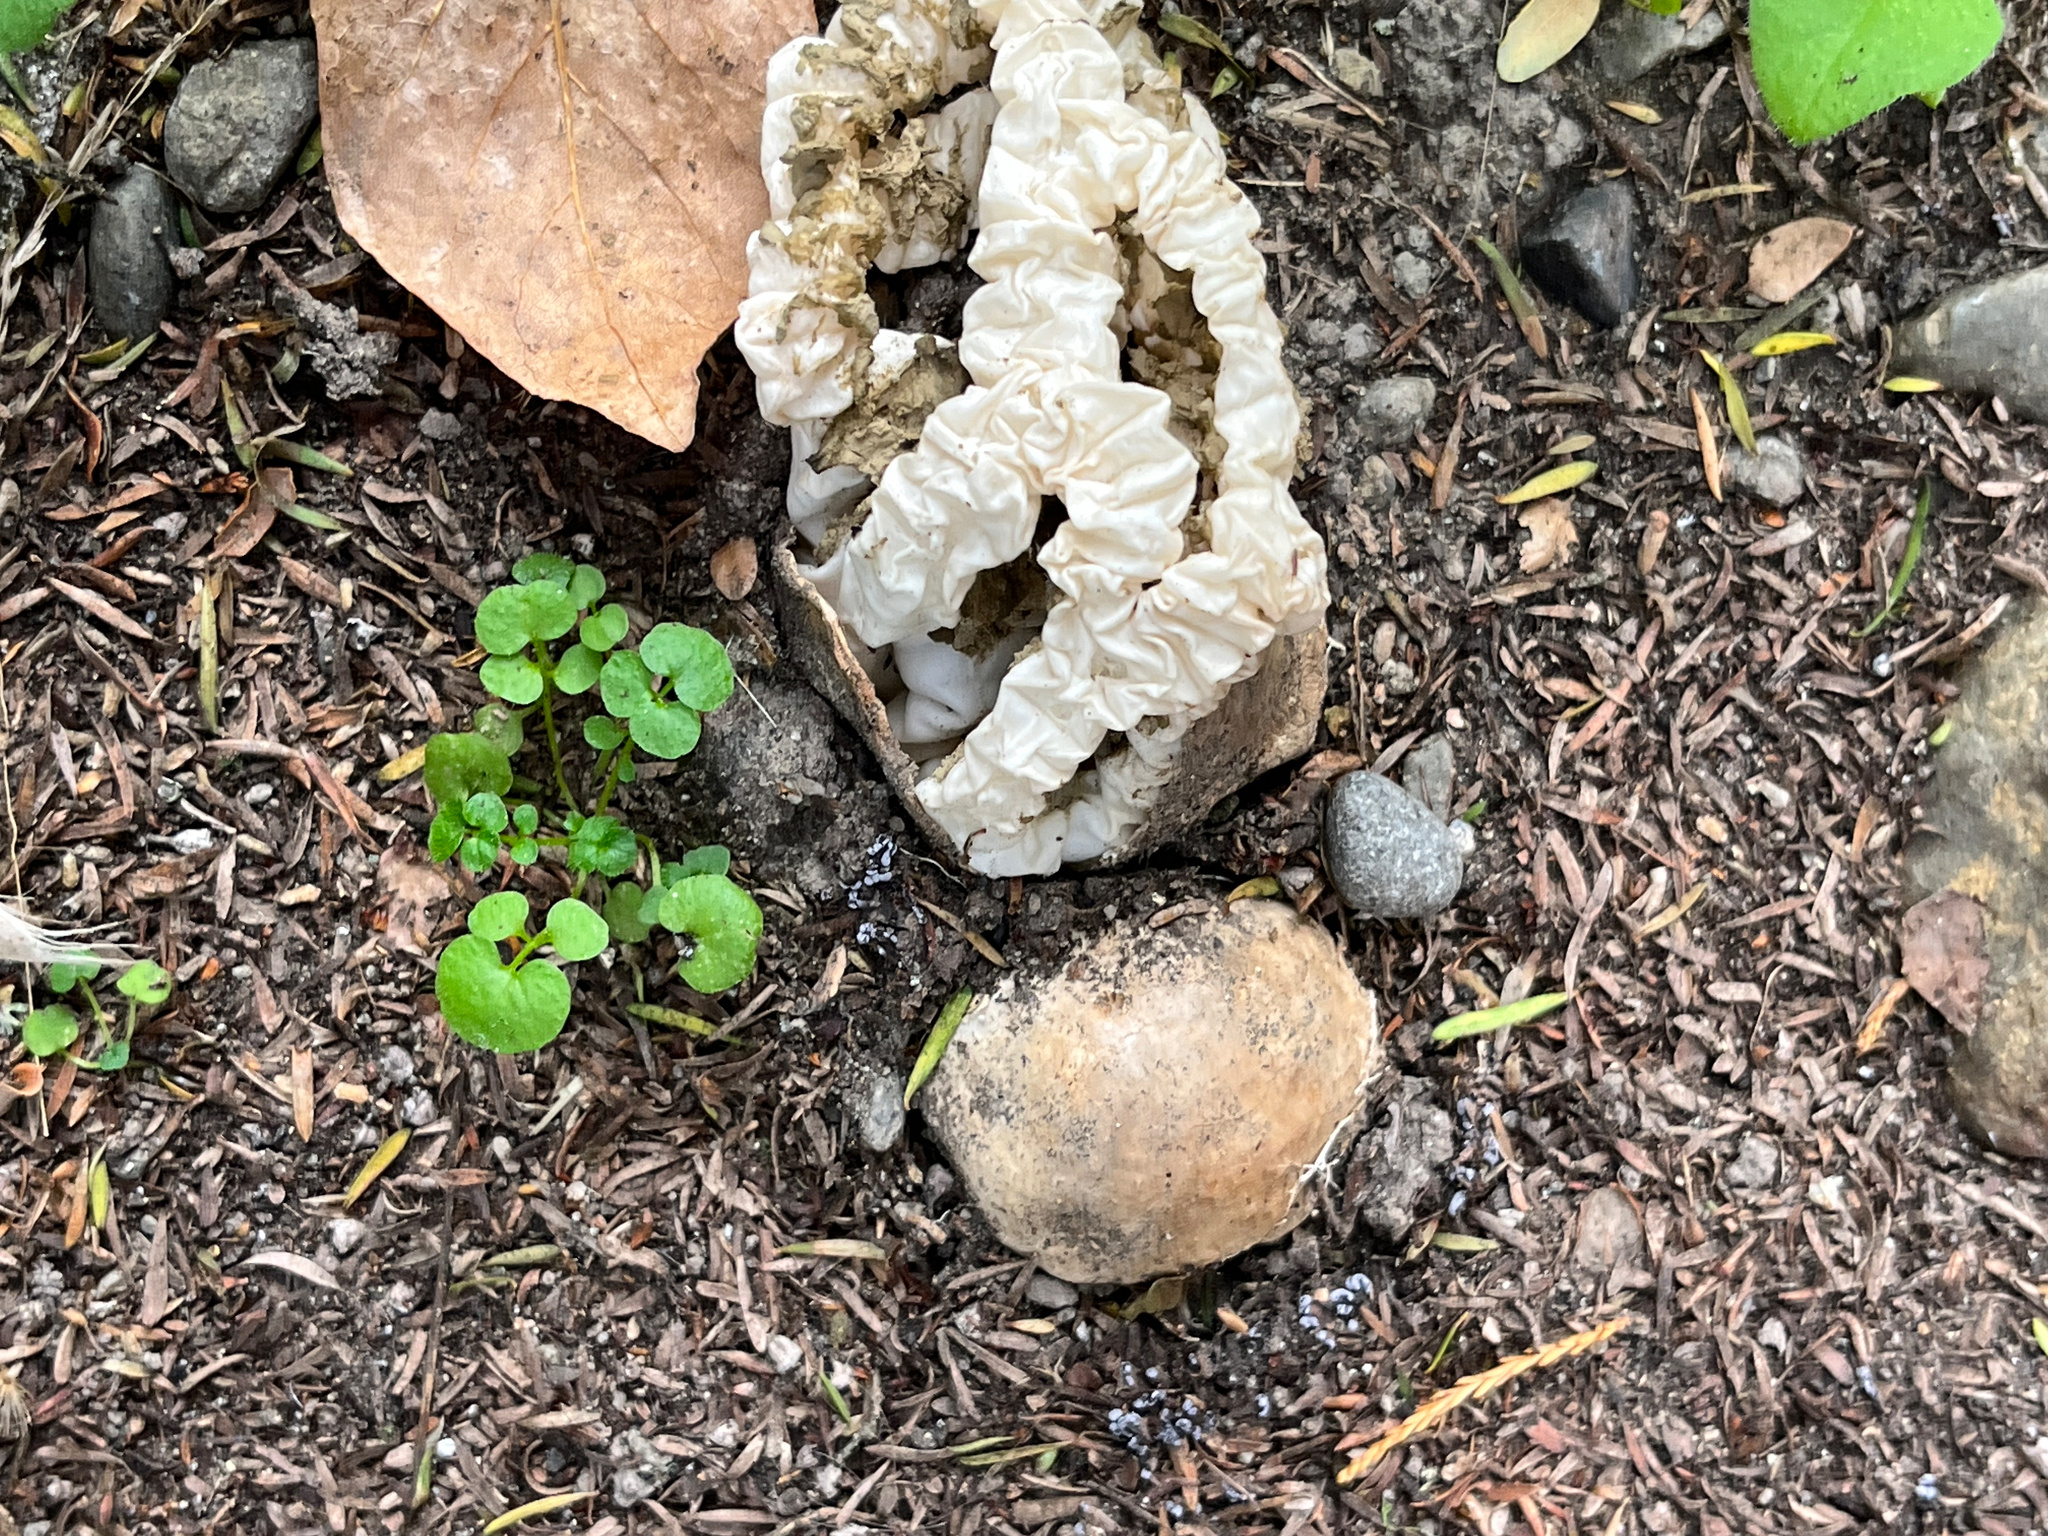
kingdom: Fungi
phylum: Basidiomycota
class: Agaricomycetes
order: Phallales
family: Phallaceae
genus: Ileodictyon
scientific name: Ileodictyon cibarium
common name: Basket fungus
